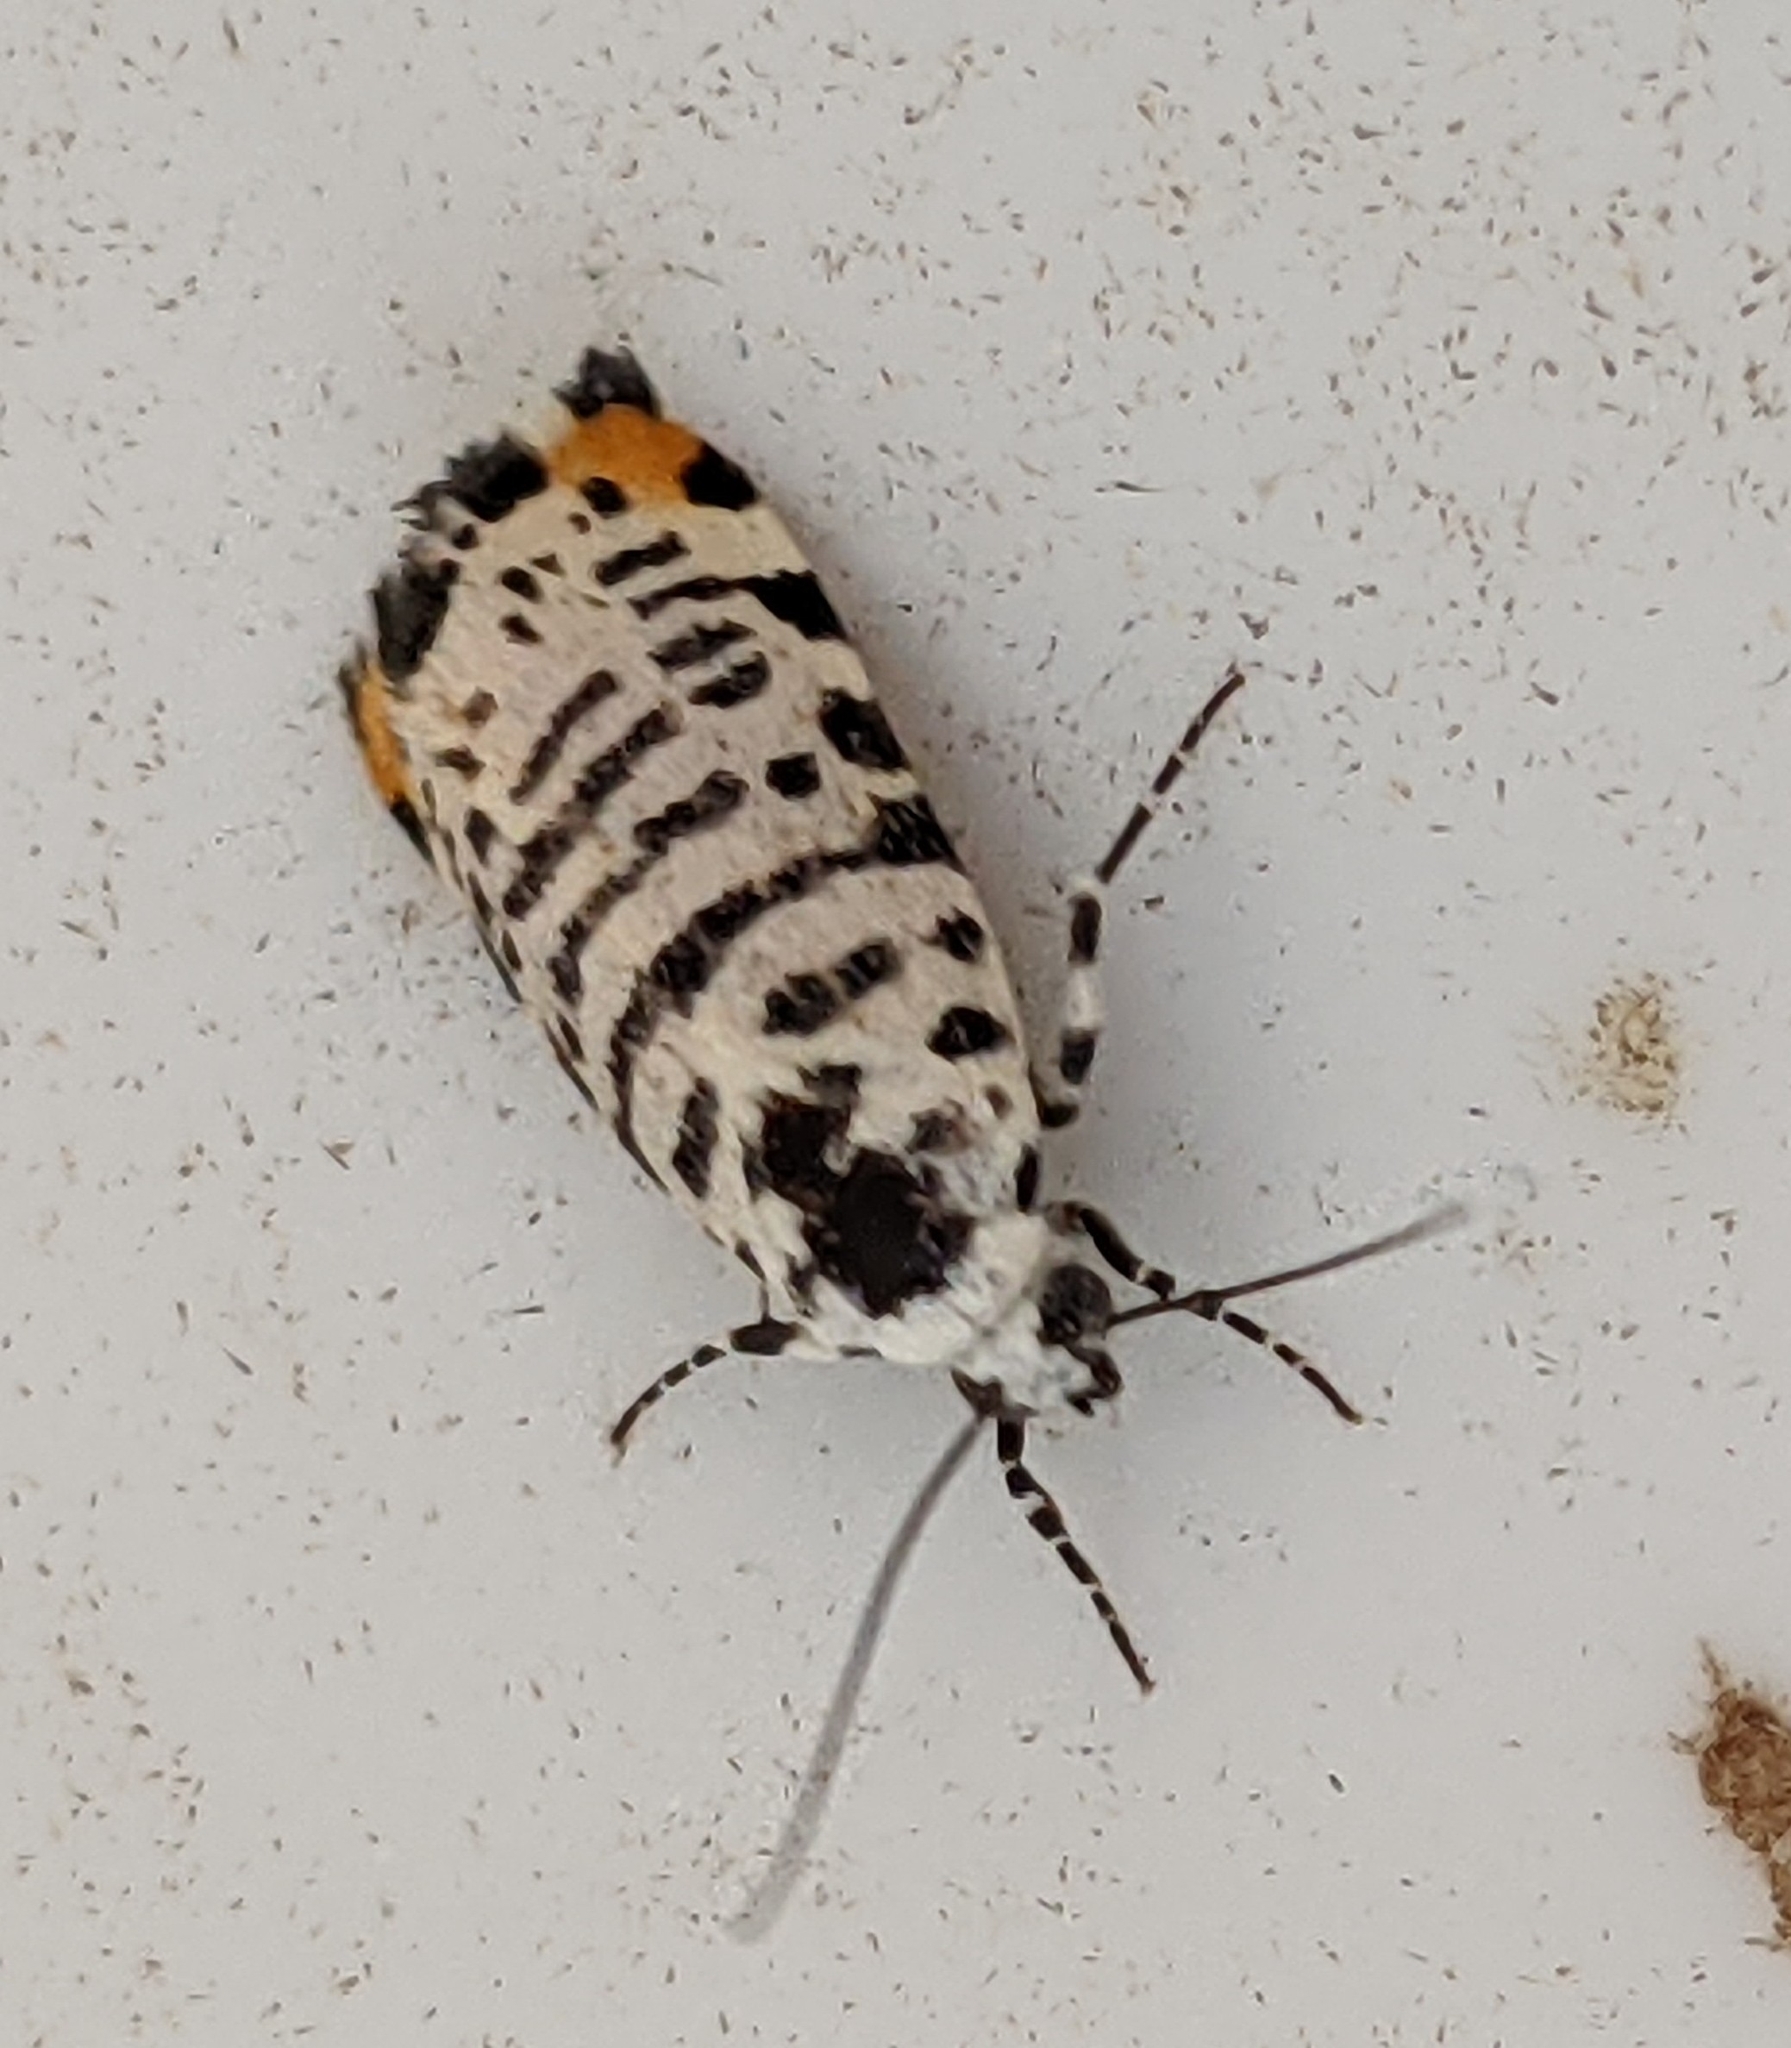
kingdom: Animalia
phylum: Arthropoda
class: Insecta
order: Lepidoptera
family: Noctuidae
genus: Acontia
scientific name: Acontia idella
